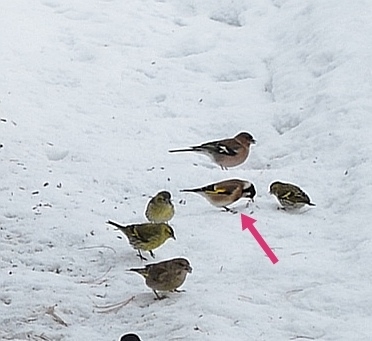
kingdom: Animalia
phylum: Chordata
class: Aves
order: Passeriformes
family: Fringillidae
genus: Carduelis
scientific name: Carduelis carduelis
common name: European goldfinch
